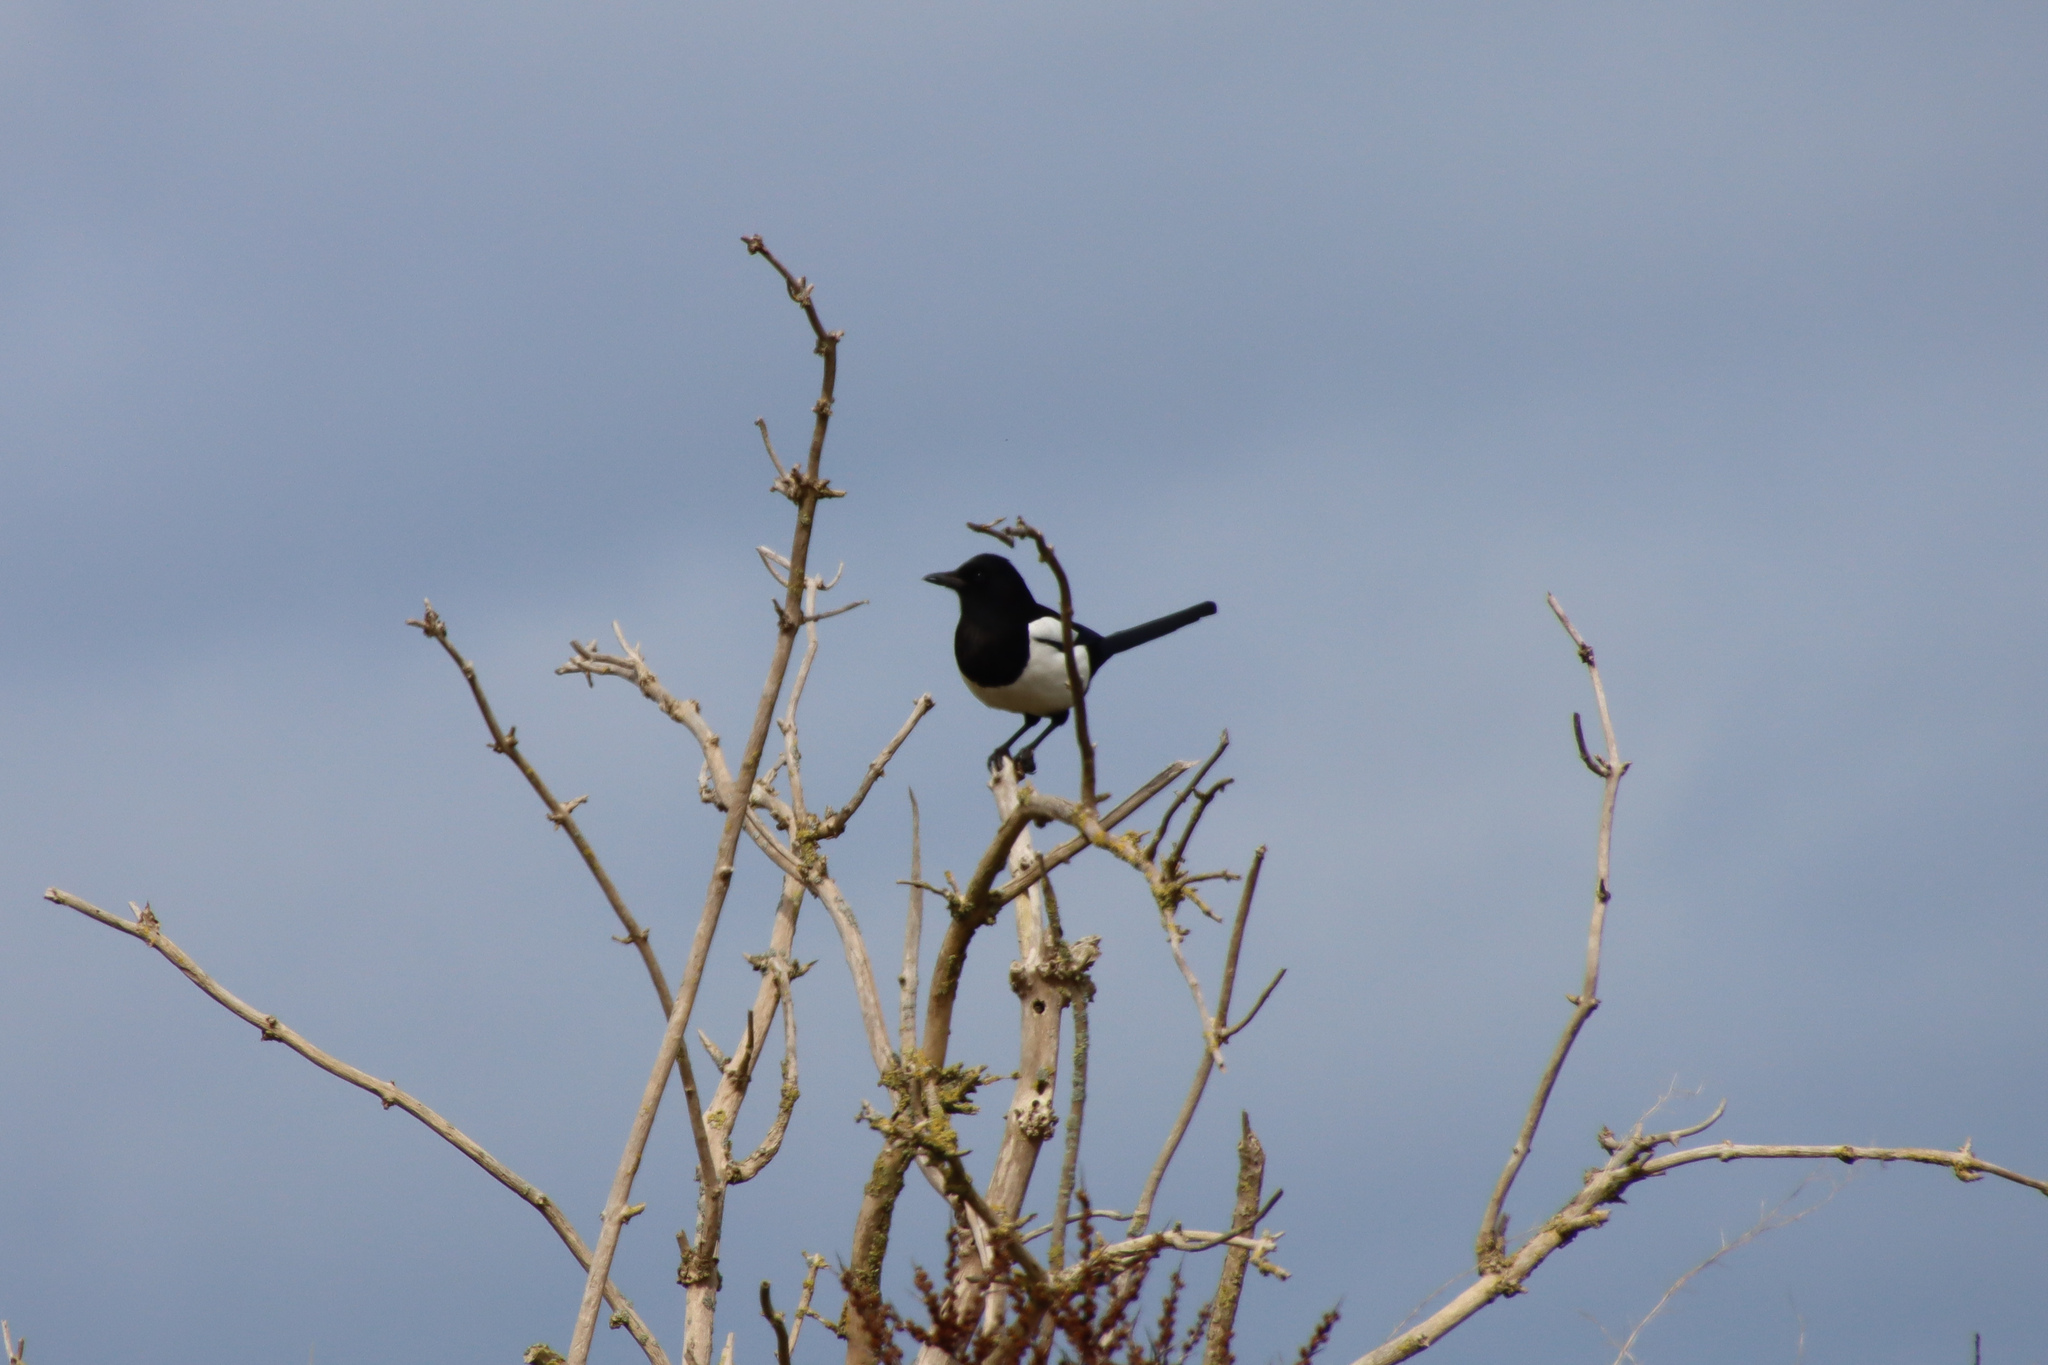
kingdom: Animalia
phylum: Chordata
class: Aves
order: Passeriformes
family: Corvidae
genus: Pica
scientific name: Pica pica
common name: Eurasian magpie
